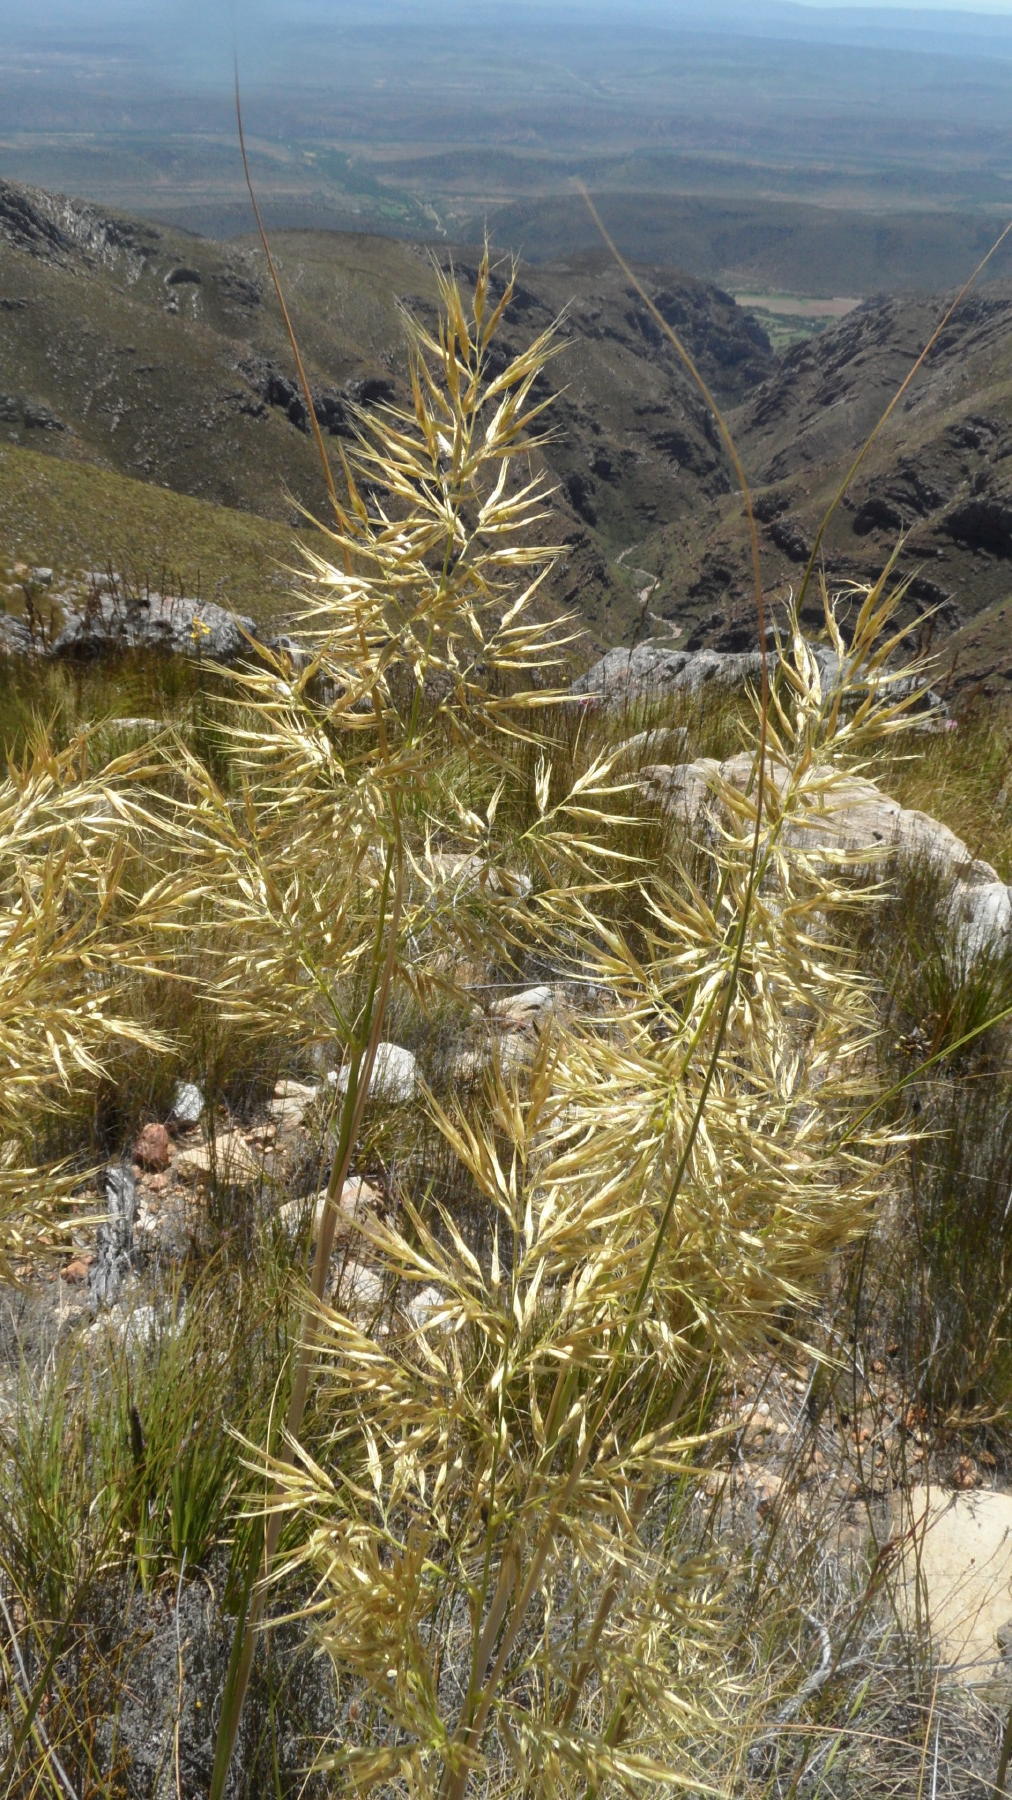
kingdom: Plantae
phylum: Tracheophyta
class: Liliopsida
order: Poales
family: Poaceae
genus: Capeochloa
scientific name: Capeochloa arundinacea
